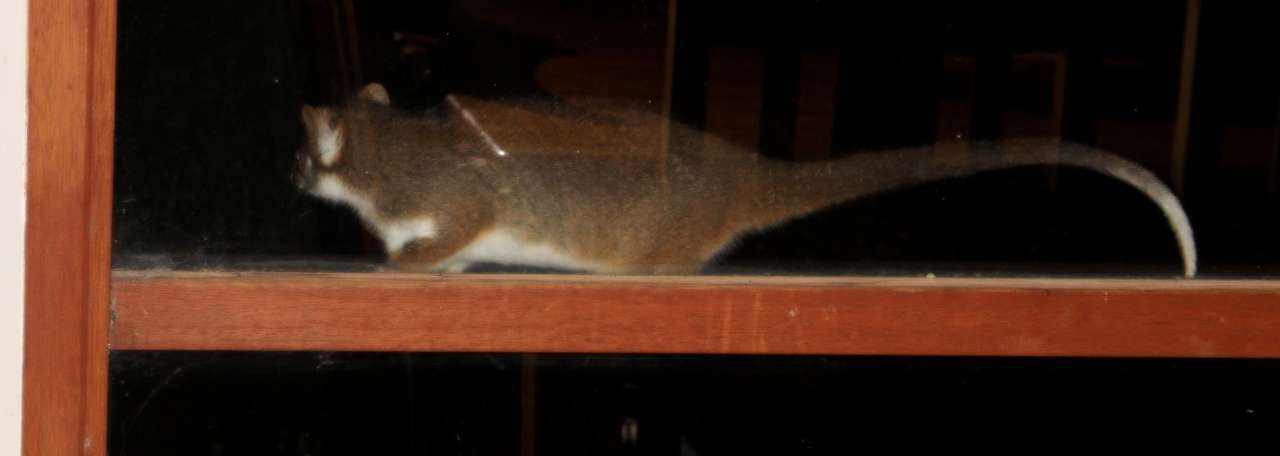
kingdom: Animalia
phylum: Chordata
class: Mammalia
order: Diprotodontia
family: Pseudocheiridae
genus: Pseudocheirus
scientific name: Pseudocheirus peregrinus
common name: Common ringtail possum
